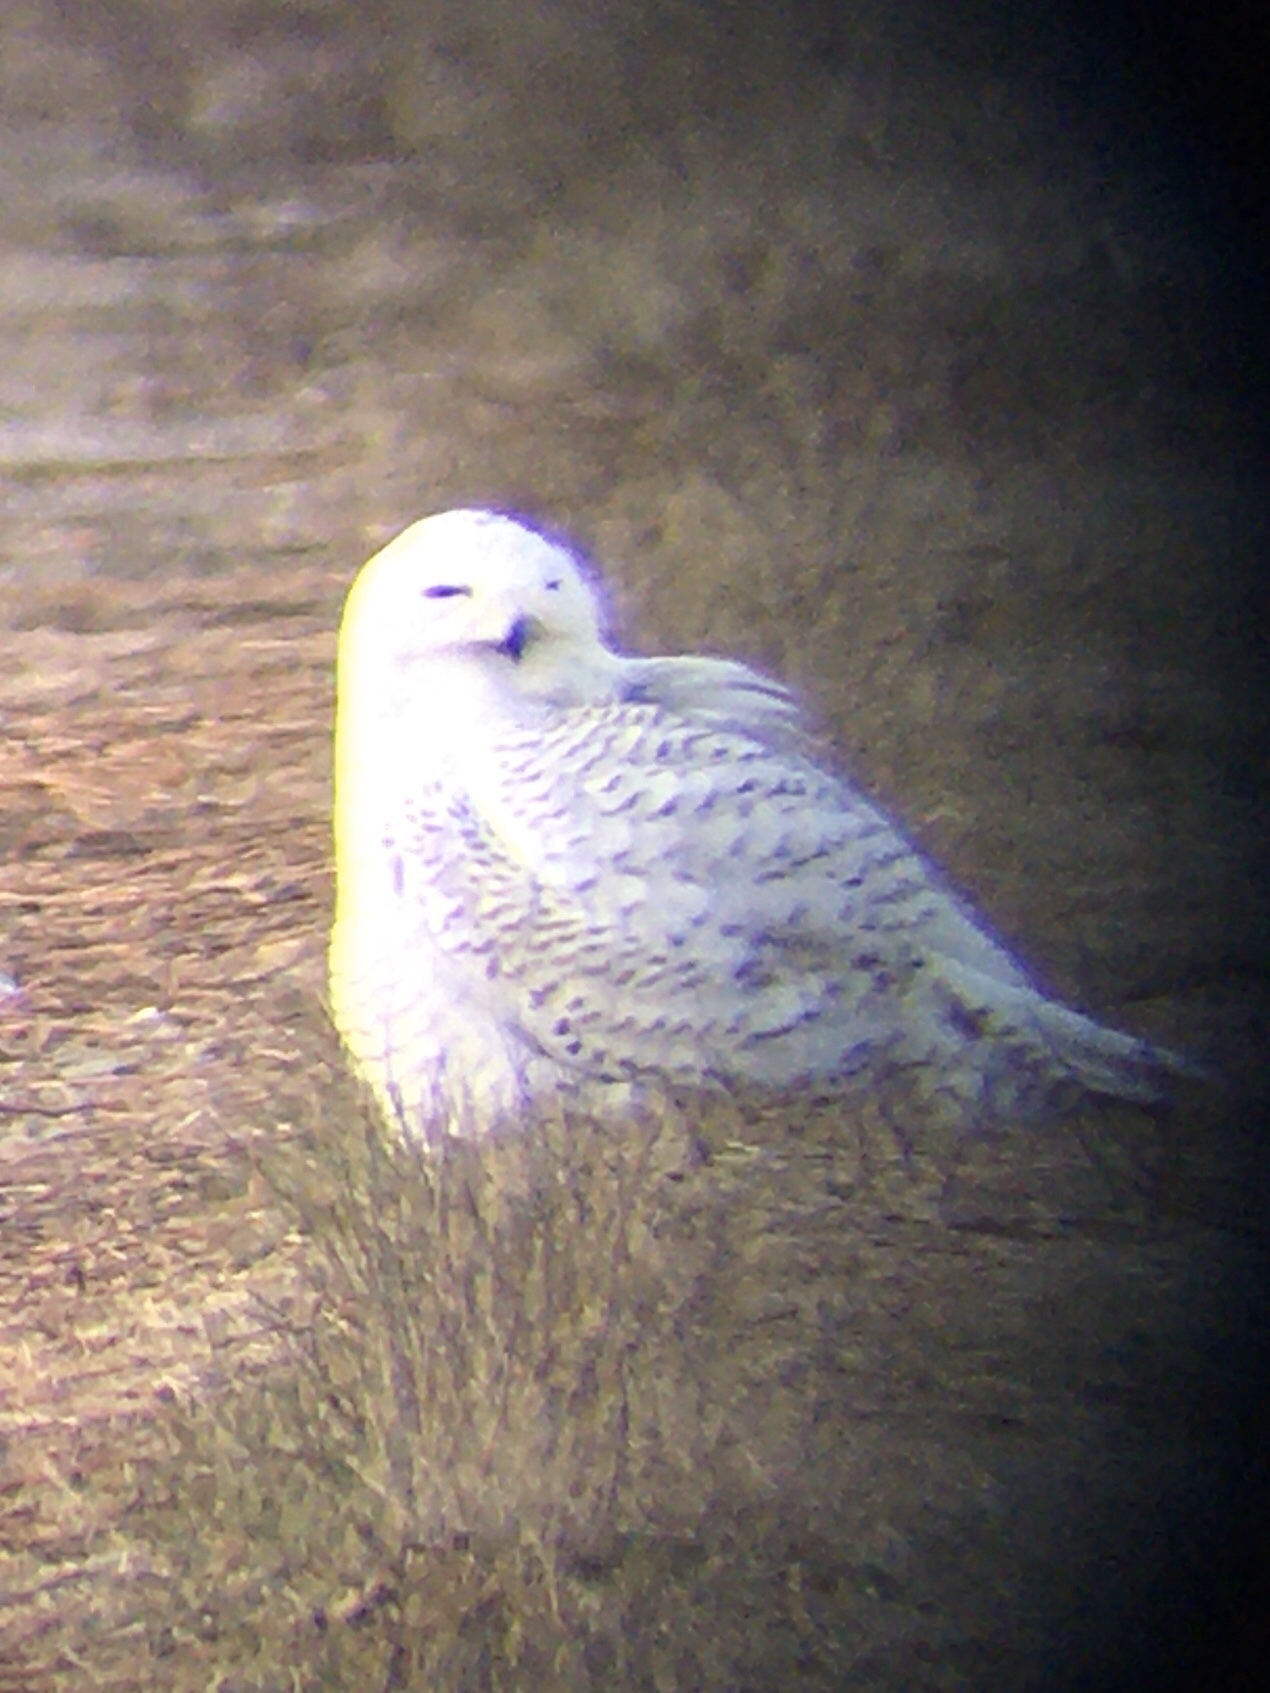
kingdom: Animalia
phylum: Chordata
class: Aves
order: Strigiformes
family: Strigidae
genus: Bubo
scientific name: Bubo scandiacus
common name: Snowy owl
